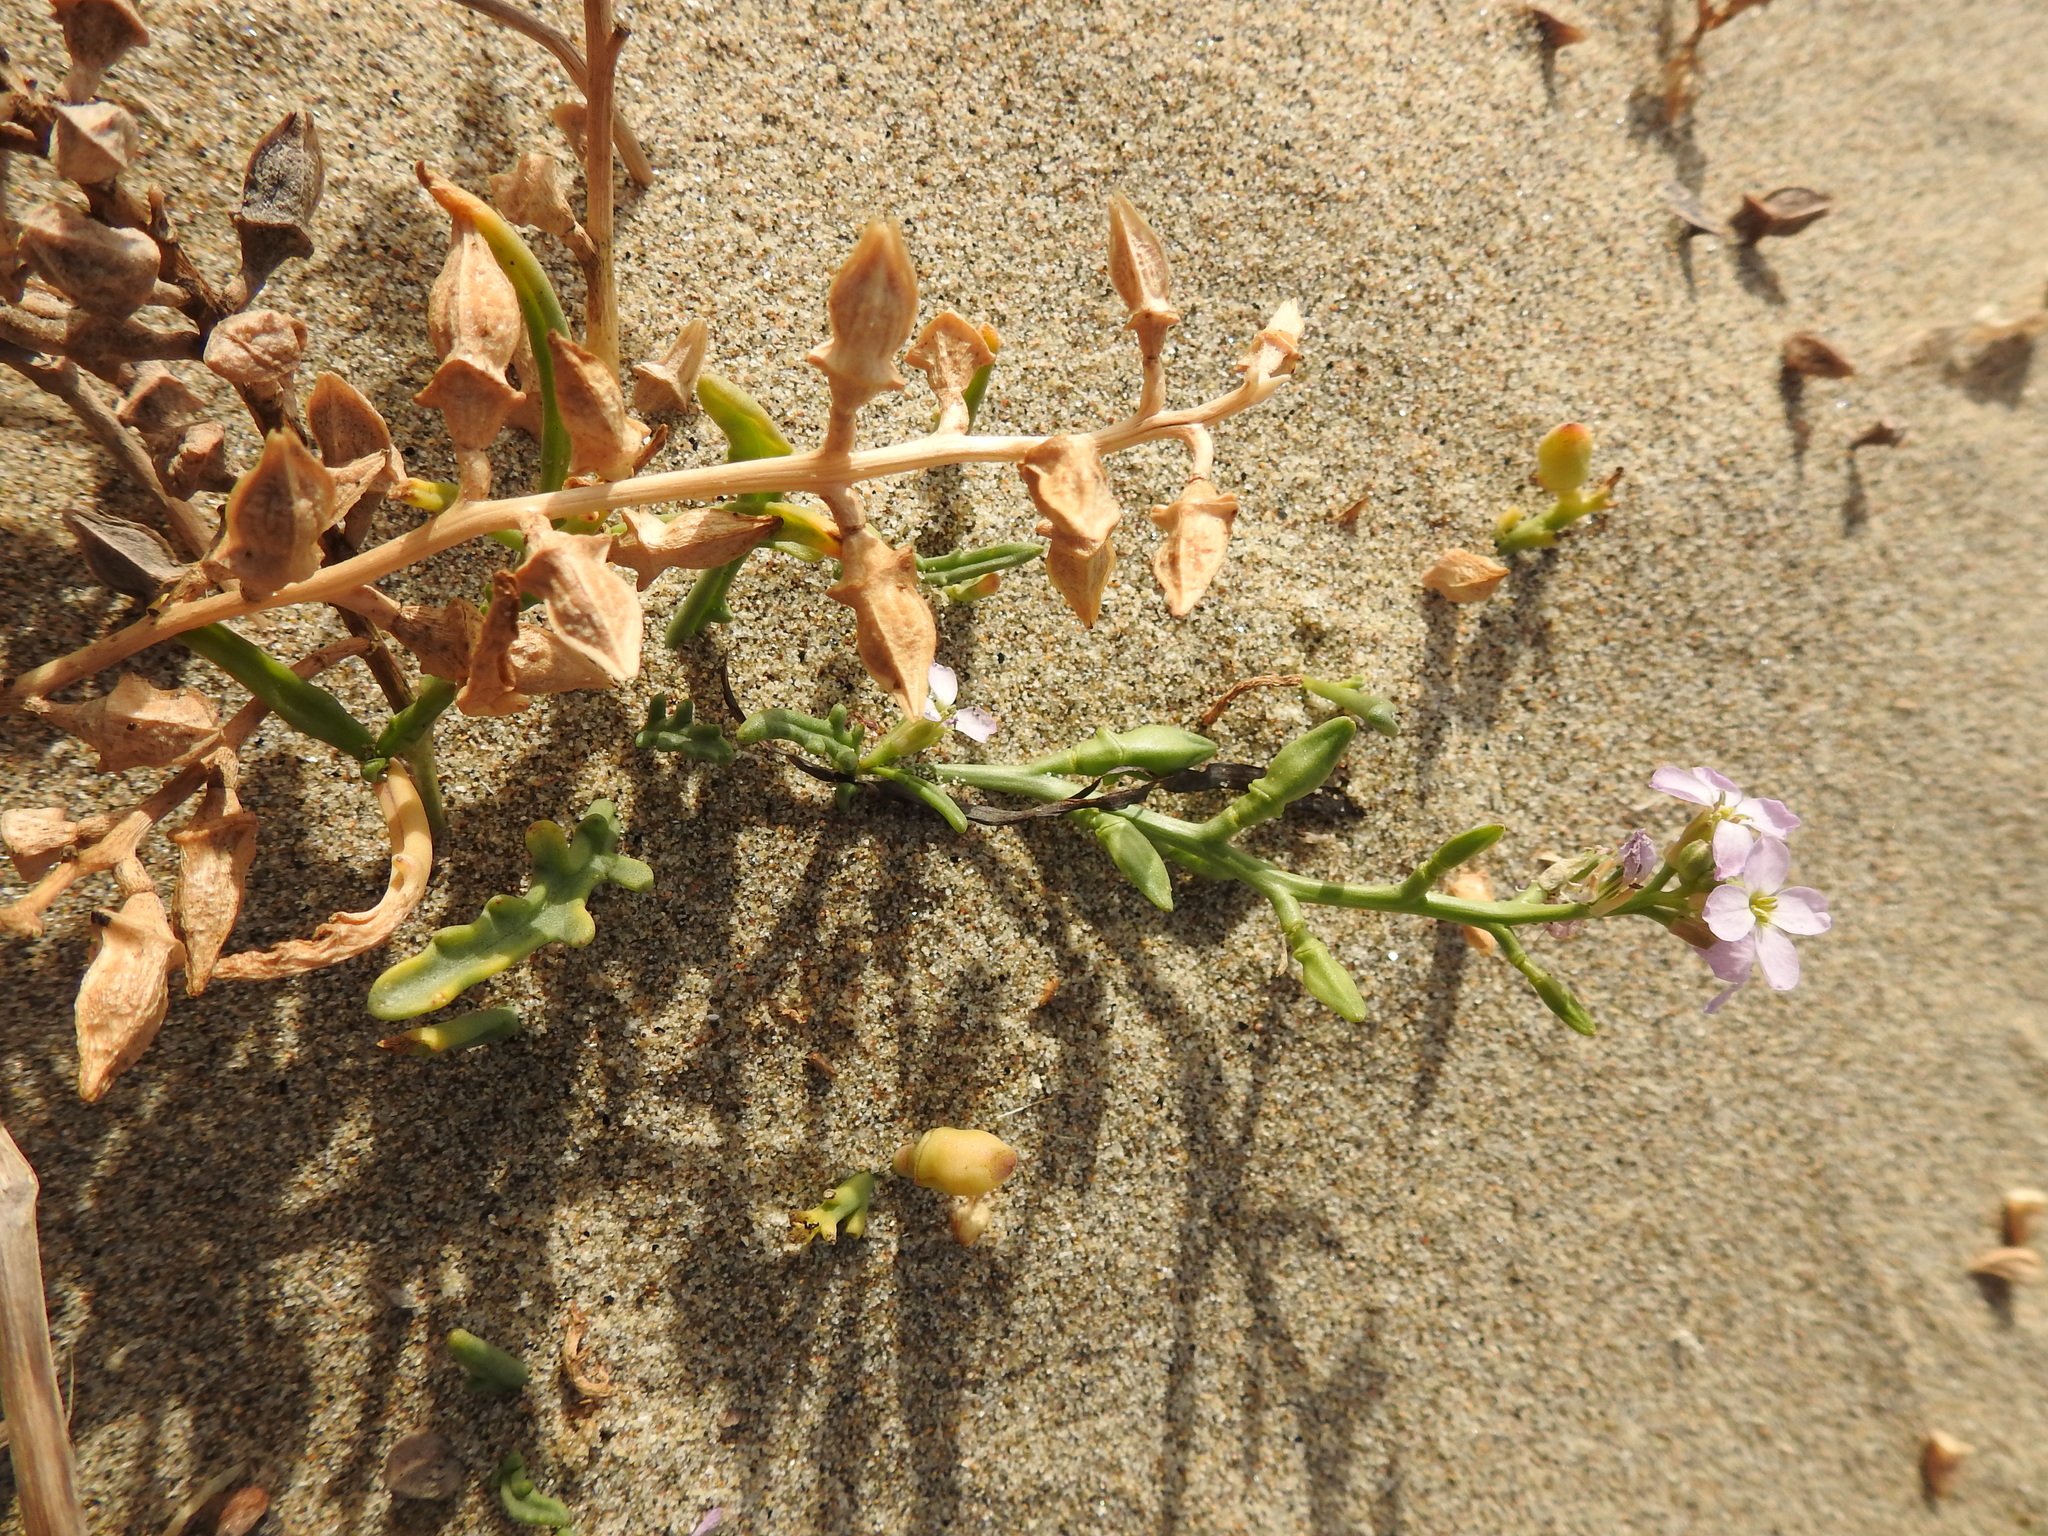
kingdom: Plantae
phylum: Tracheophyta
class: Magnoliopsida
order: Brassicales
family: Brassicaceae
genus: Cakile
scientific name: Cakile maritima
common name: Sea rocket
